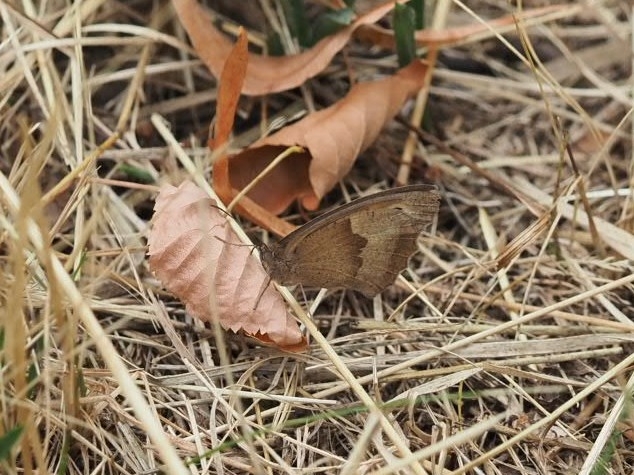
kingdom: Animalia
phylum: Arthropoda
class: Insecta
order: Lepidoptera
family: Nymphalidae
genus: Maniola
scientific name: Maniola jurtina
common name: Meadow brown
